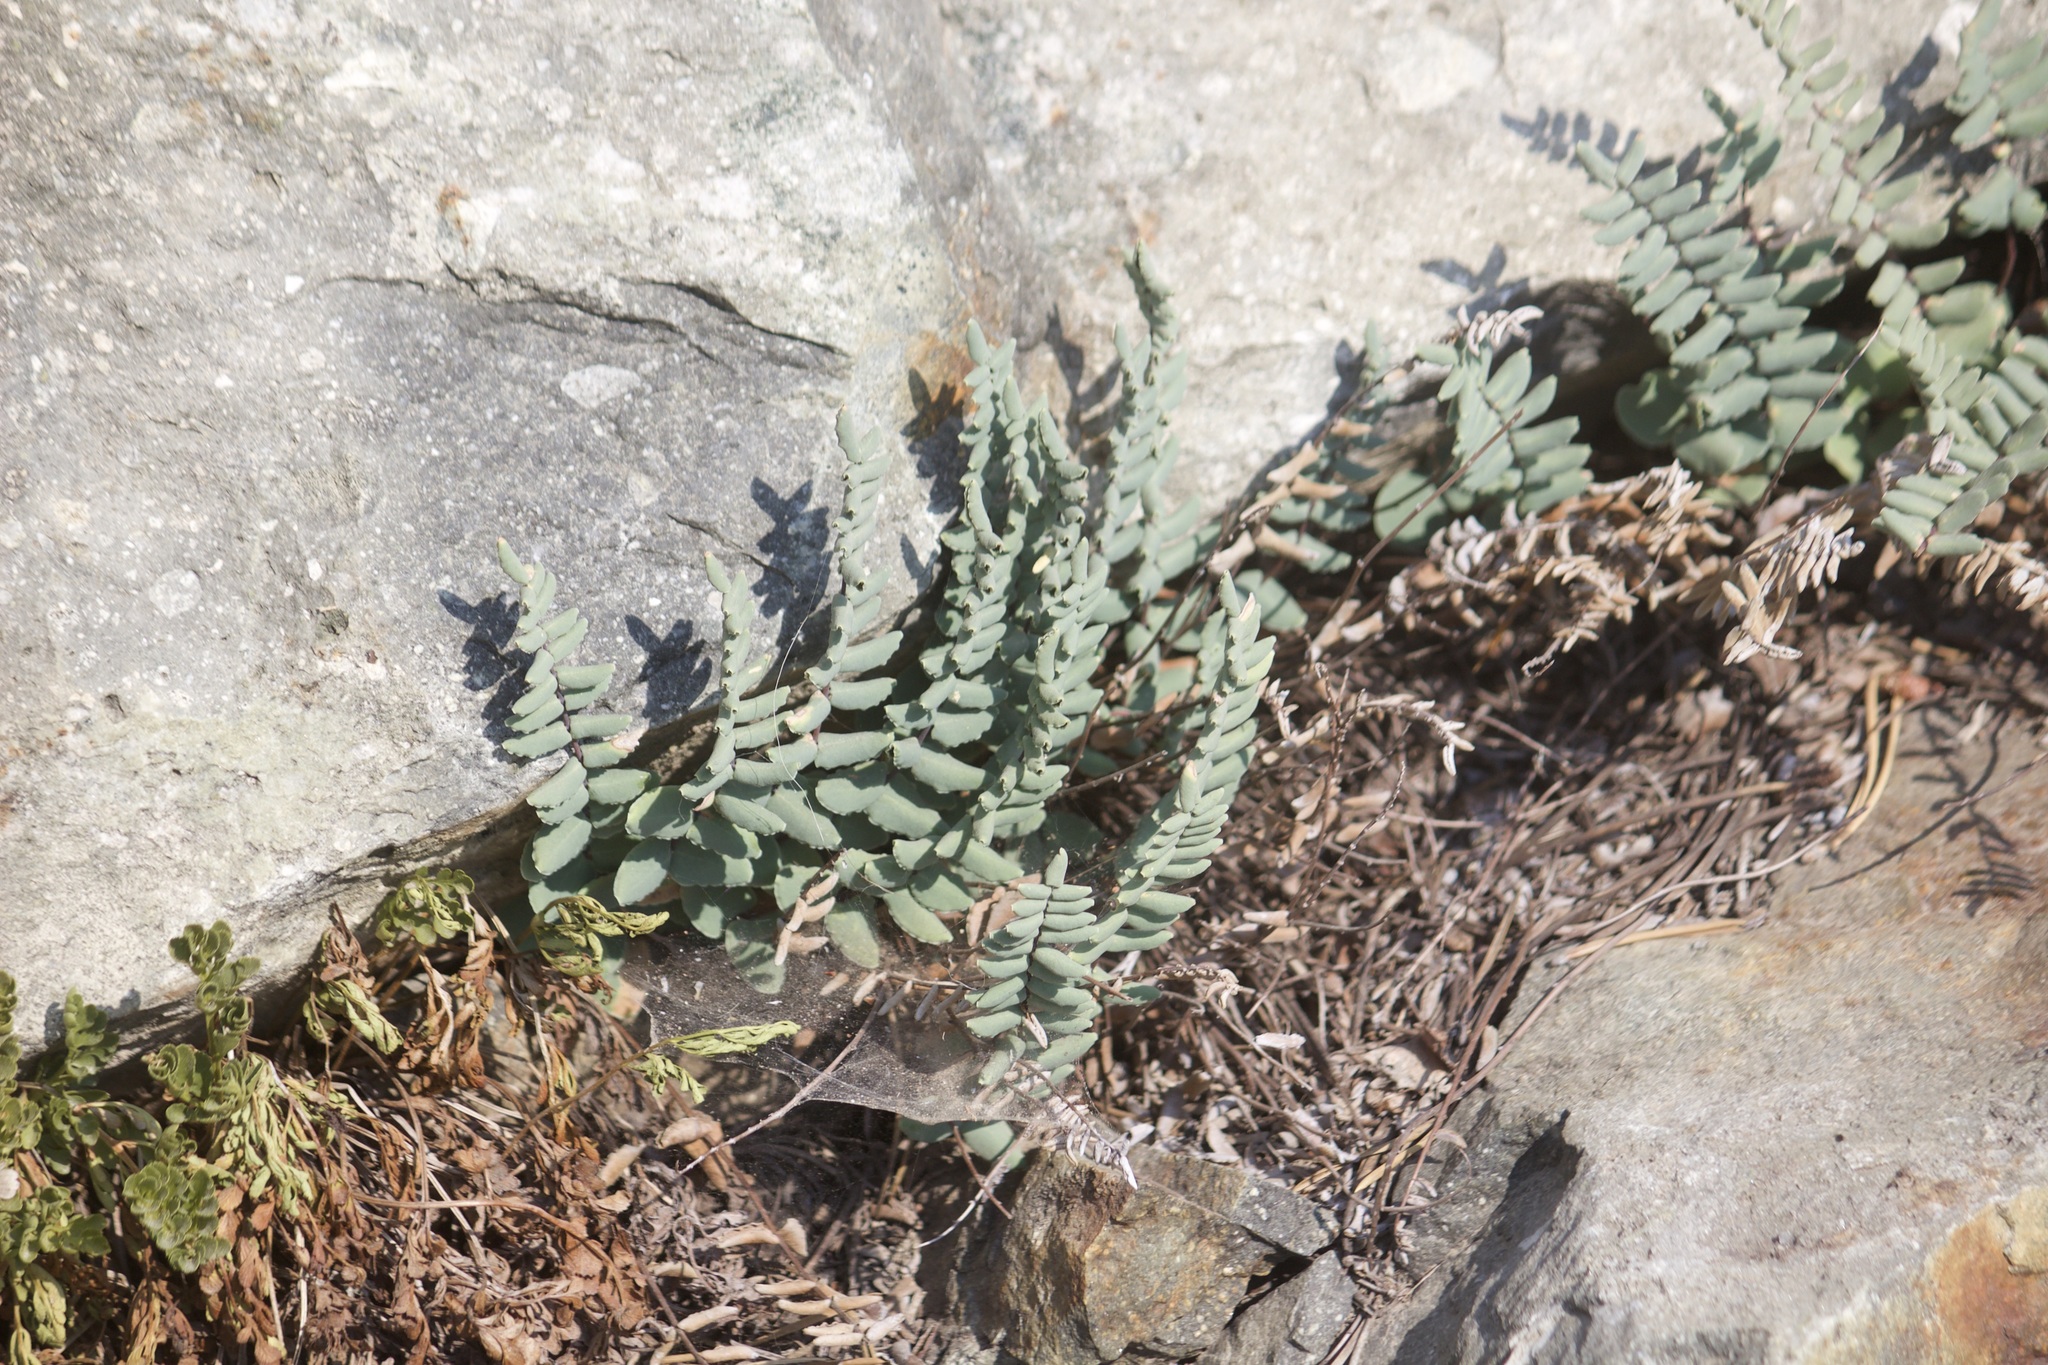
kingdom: Plantae
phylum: Tracheophyta
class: Polypodiopsida
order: Polypodiales
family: Pteridaceae
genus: Pellaea
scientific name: Pellaea bridgesii
